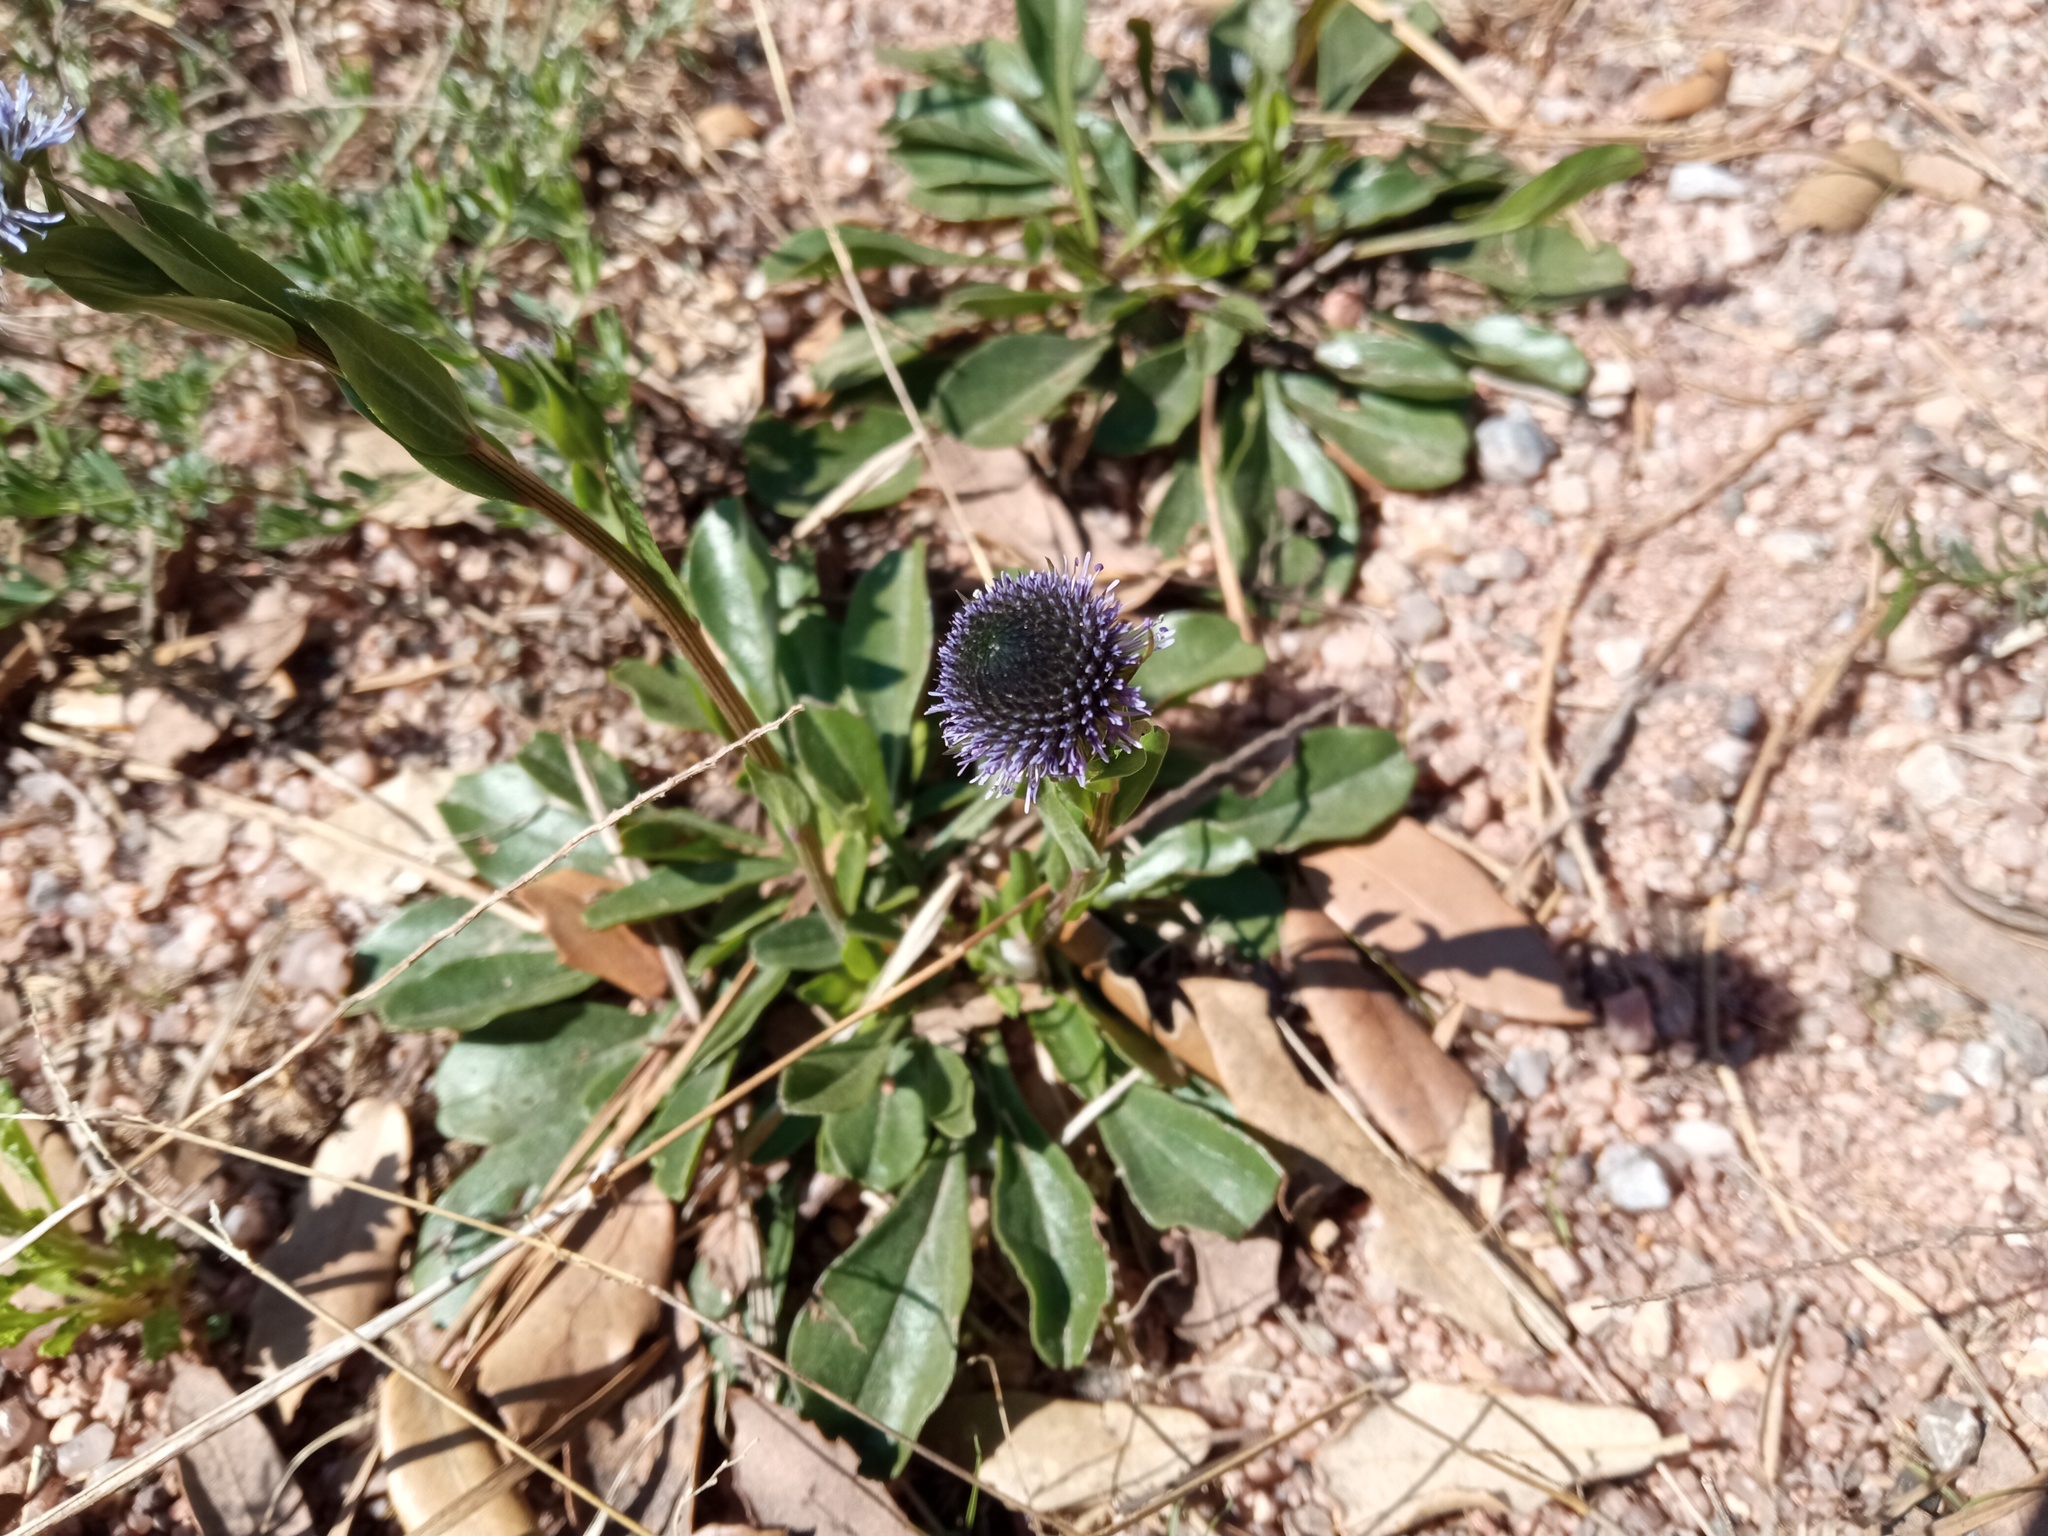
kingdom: Plantae
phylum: Tracheophyta
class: Magnoliopsida
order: Lamiales
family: Plantaginaceae
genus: Globularia
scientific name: Globularia bisnagarica
